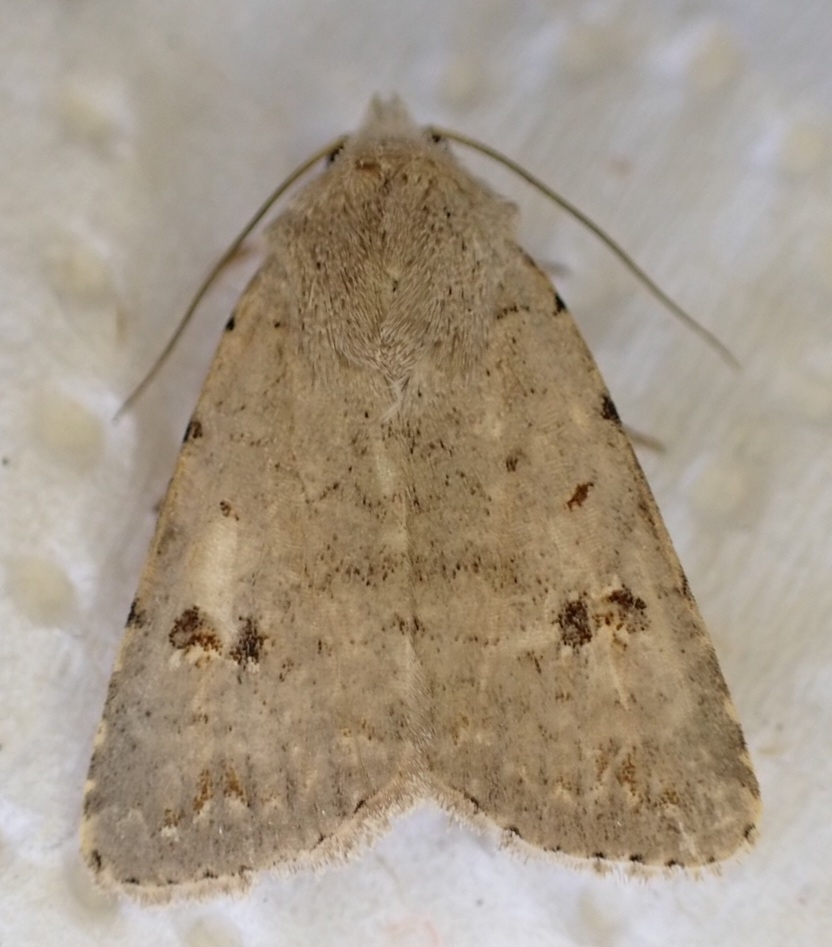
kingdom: Animalia
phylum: Arthropoda
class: Insecta
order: Lepidoptera
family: Noctuidae
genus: Caradrina
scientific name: Caradrina kadenii
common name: Clancy's rustic
